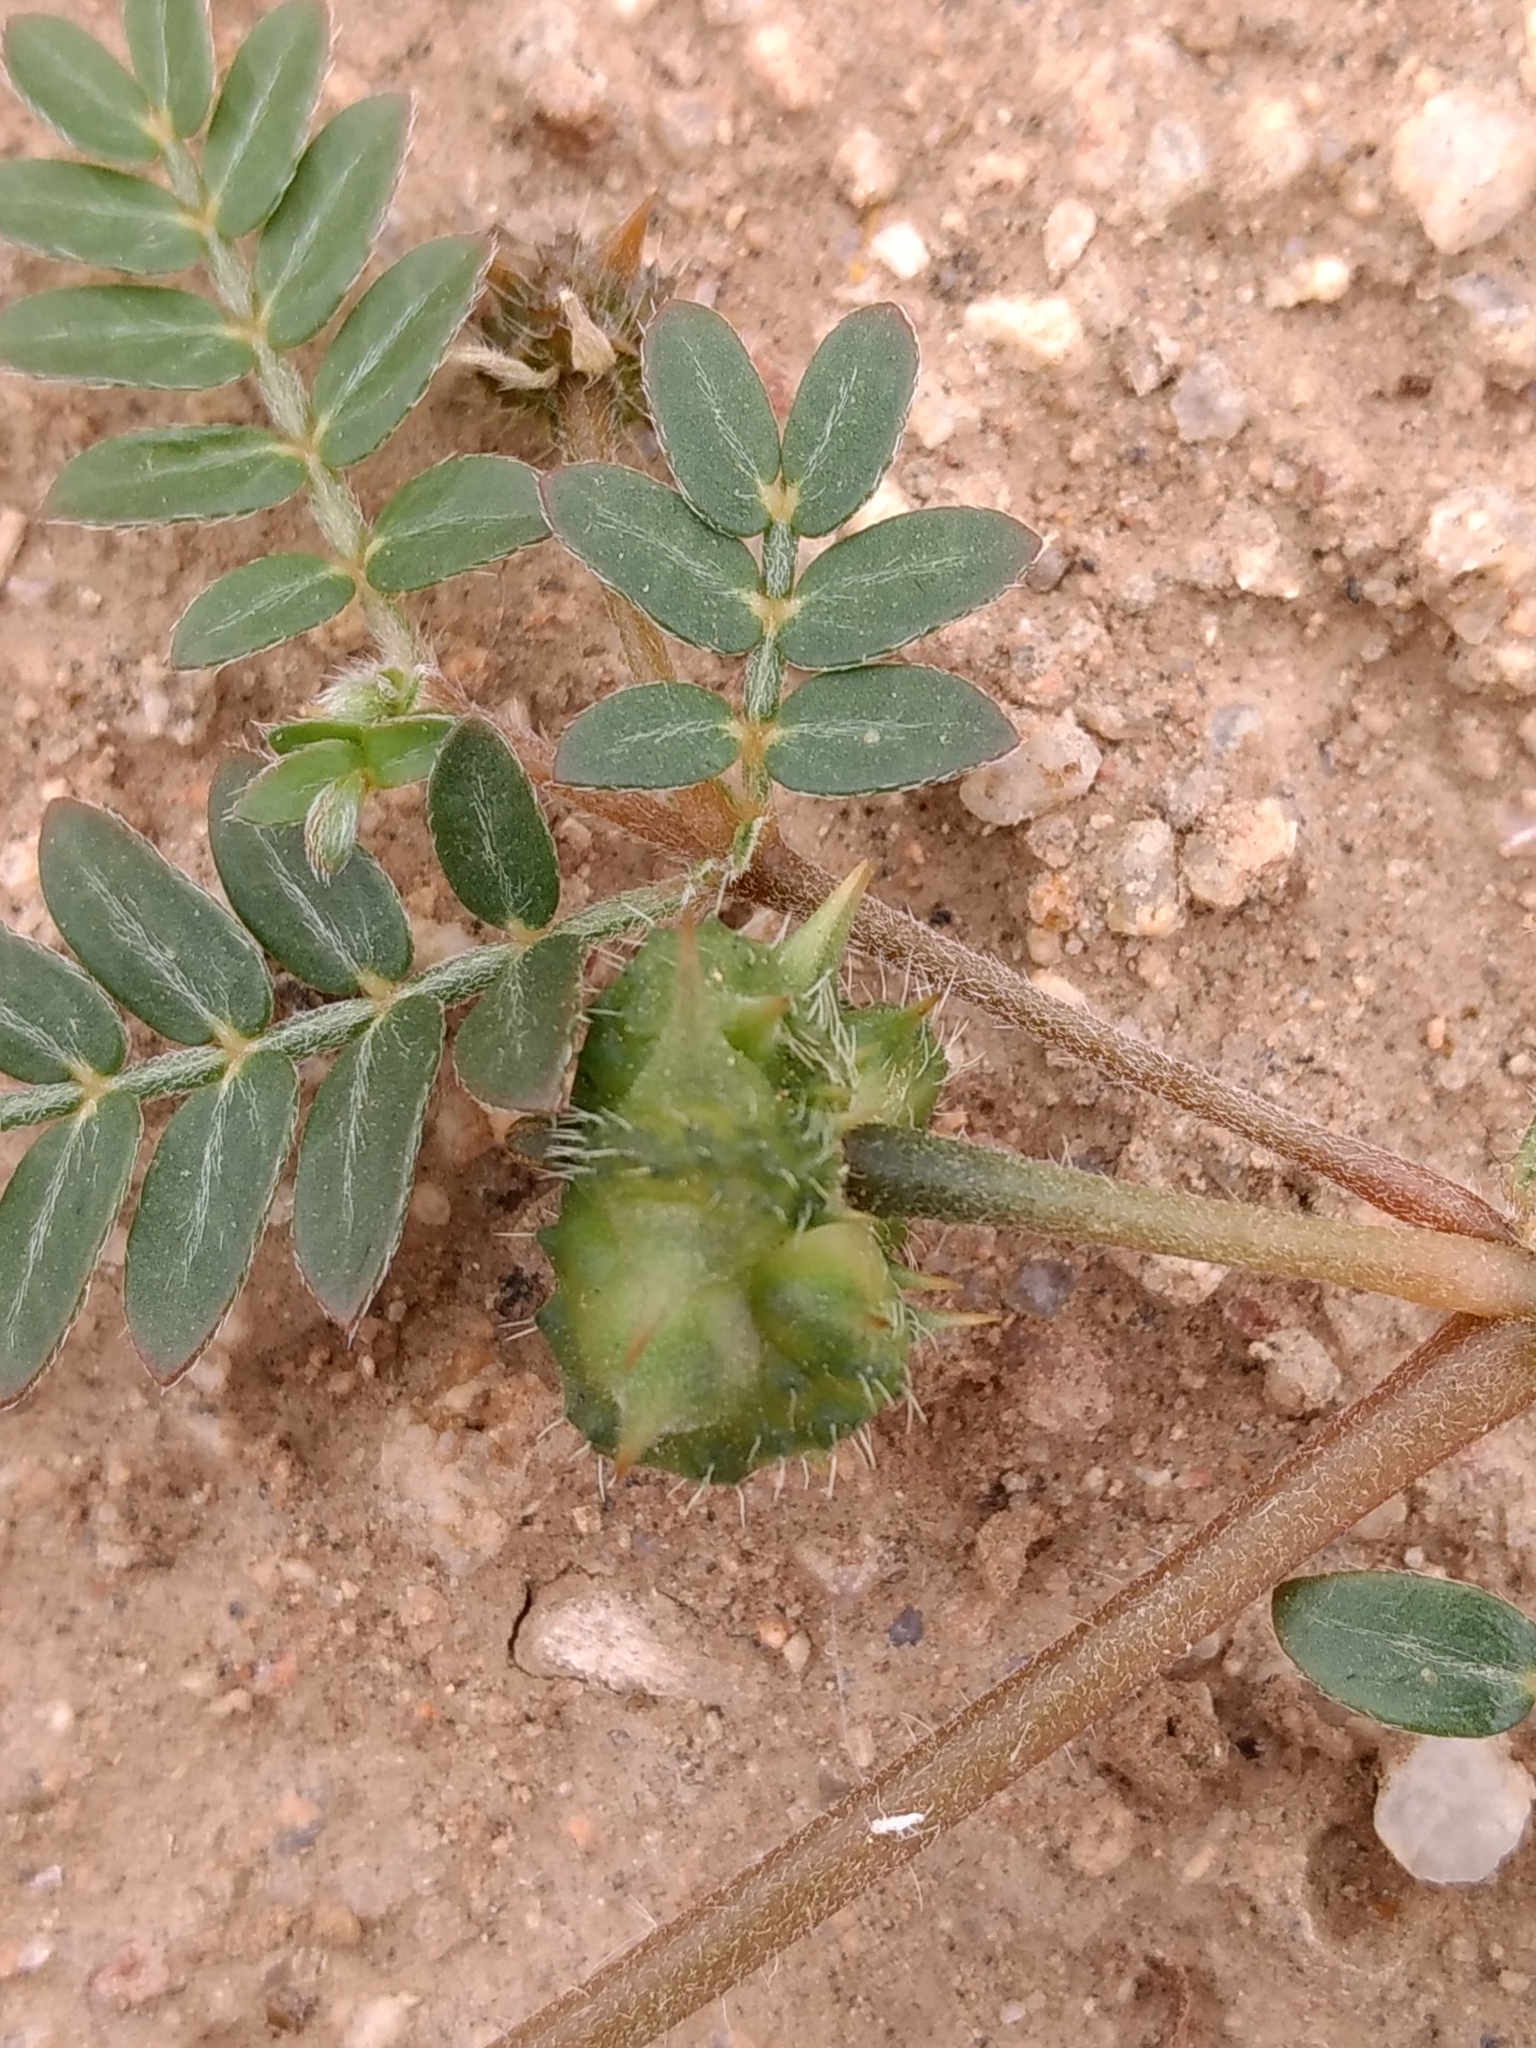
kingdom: Plantae
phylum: Tracheophyta
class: Magnoliopsida
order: Zygophyllales
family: Zygophyllaceae
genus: Tribulus
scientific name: Tribulus terrestris
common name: Puncturevine
